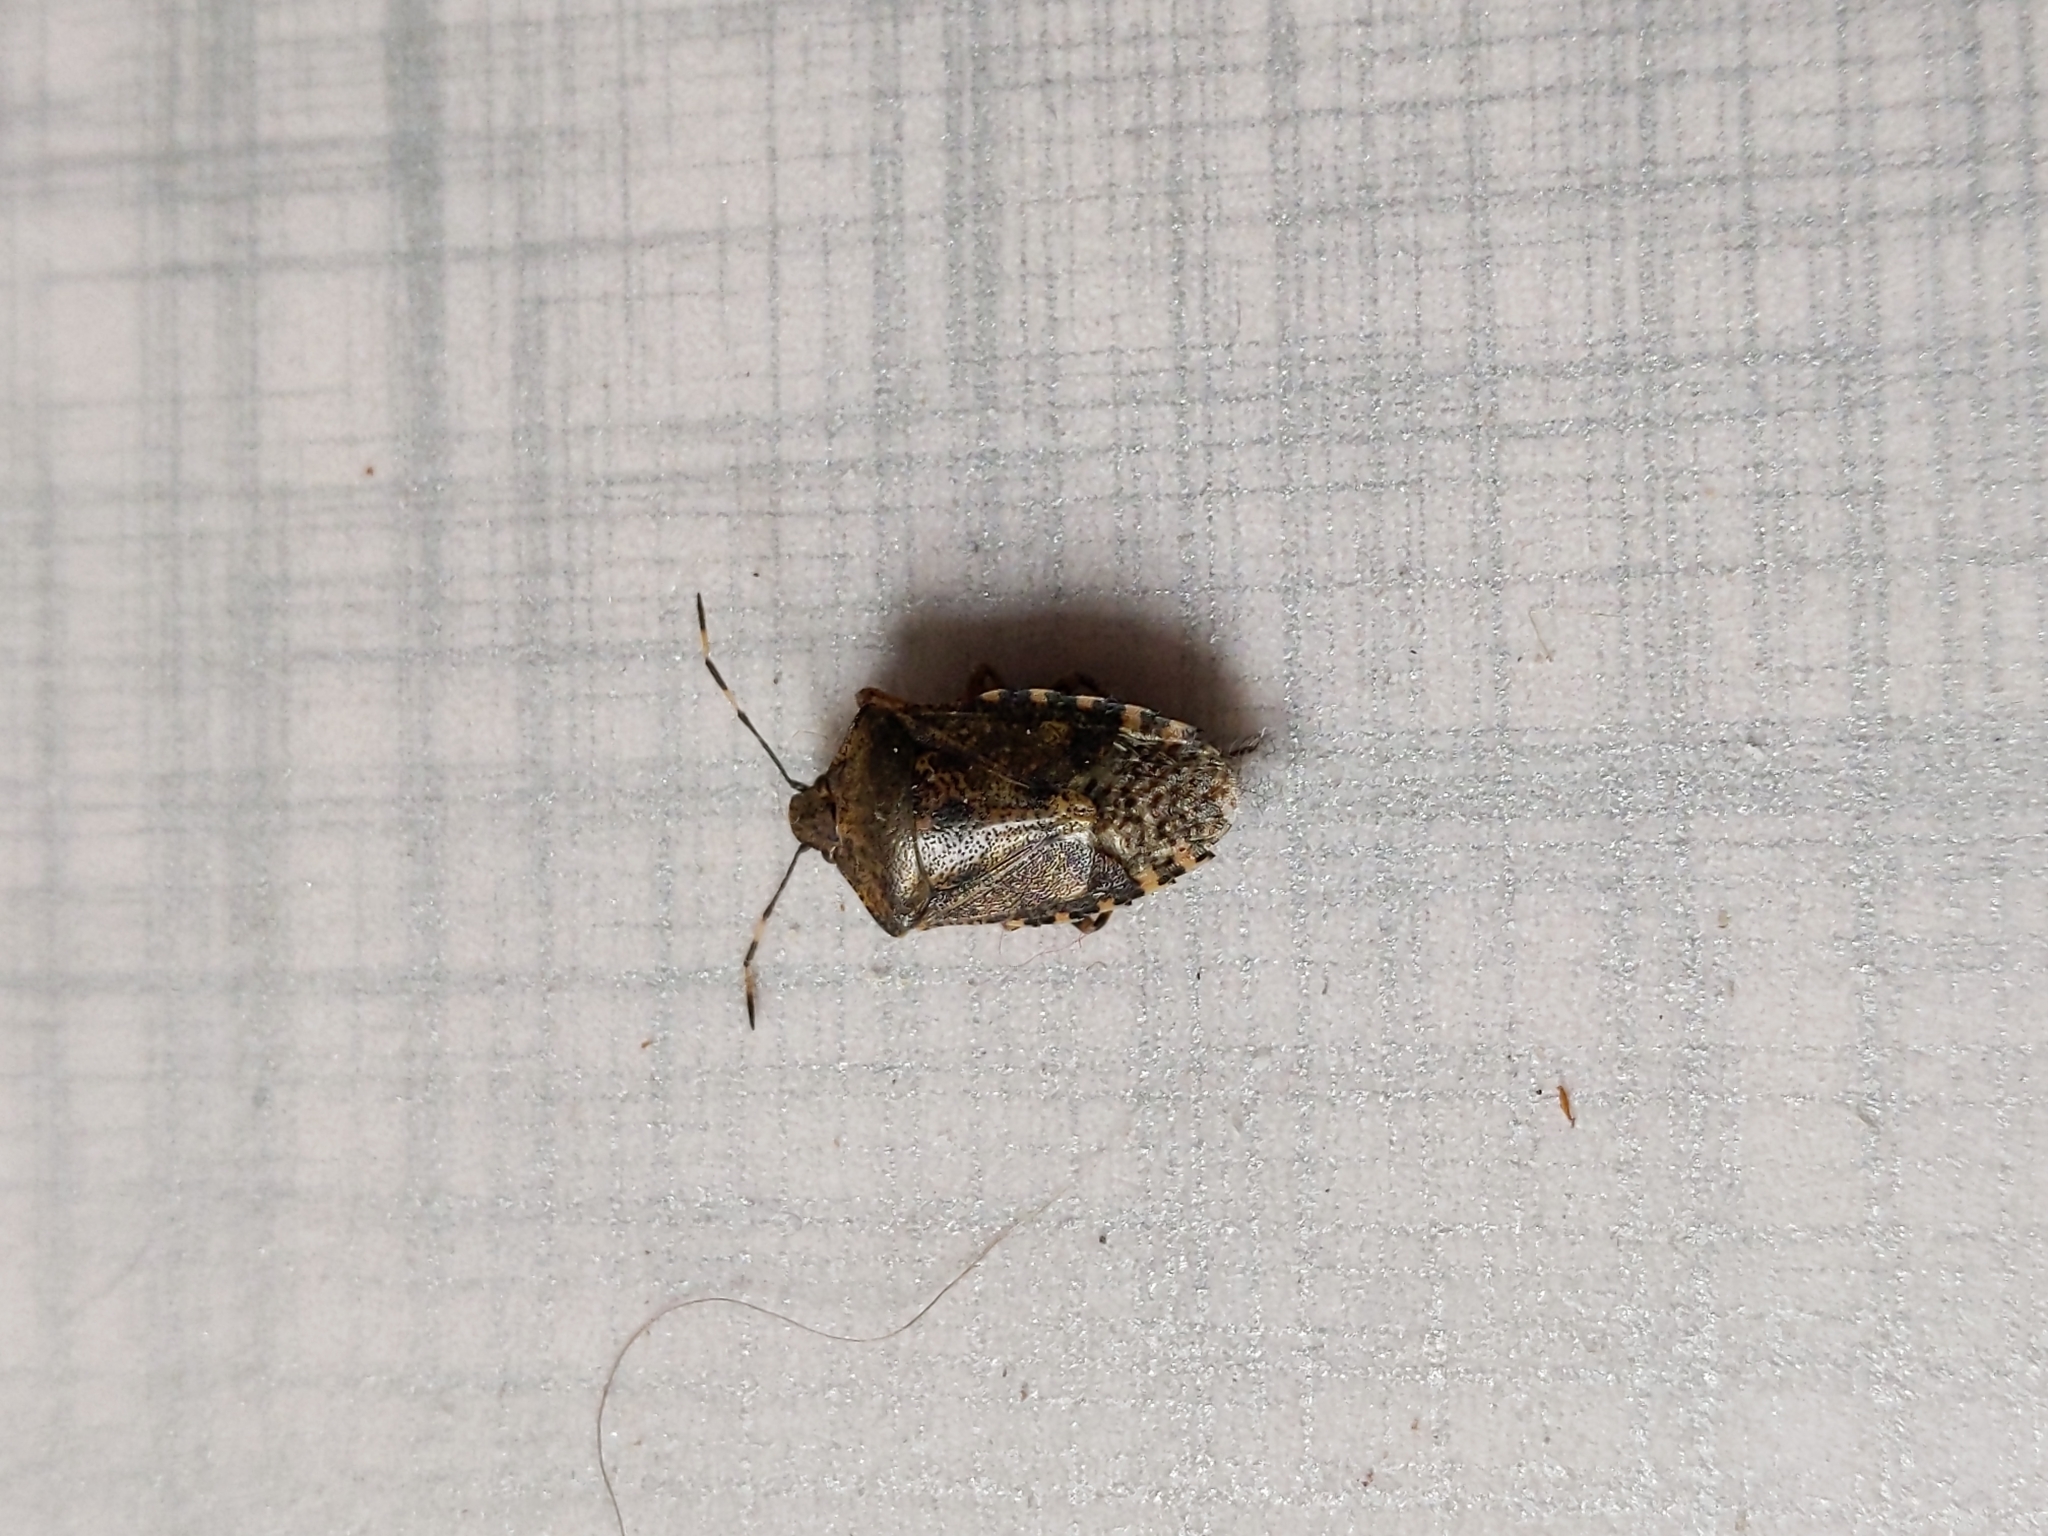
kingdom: Animalia
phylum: Arthropoda
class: Insecta
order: Hemiptera
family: Pentatomidae
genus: Rhaphigaster
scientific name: Rhaphigaster nebulosa
